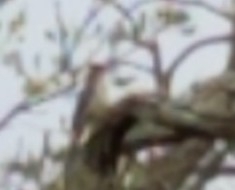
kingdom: Animalia
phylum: Chordata
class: Aves
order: Piciformes
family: Picidae
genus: Melanerpes
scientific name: Melanerpes carolinus
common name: Red-bellied woodpecker
